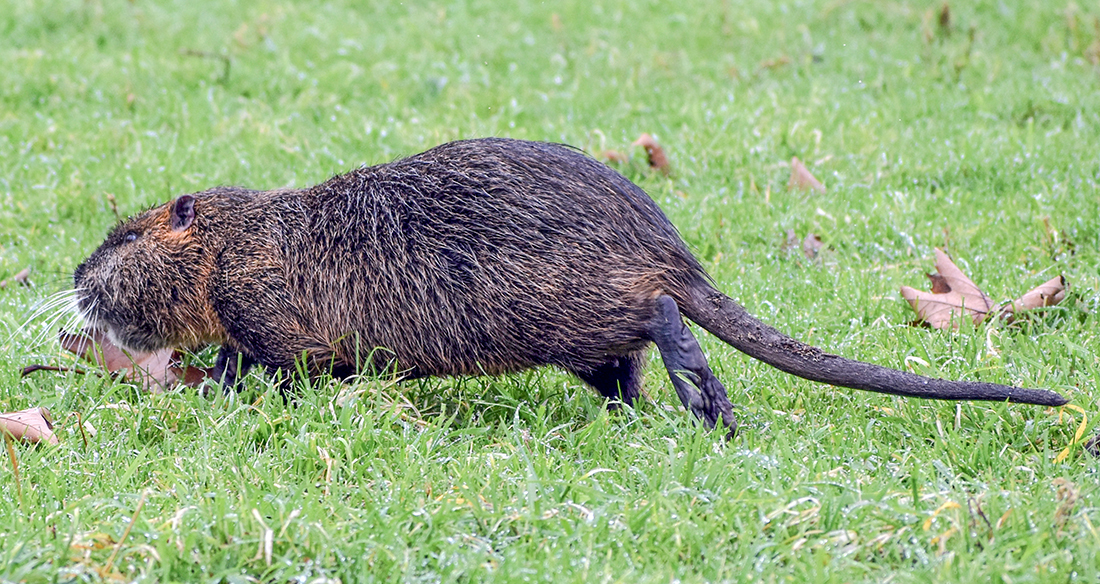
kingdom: Animalia
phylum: Chordata
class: Mammalia
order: Rodentia
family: Myocastoridae
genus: Myocastor
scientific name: Myocastor coypus
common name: Coypu
